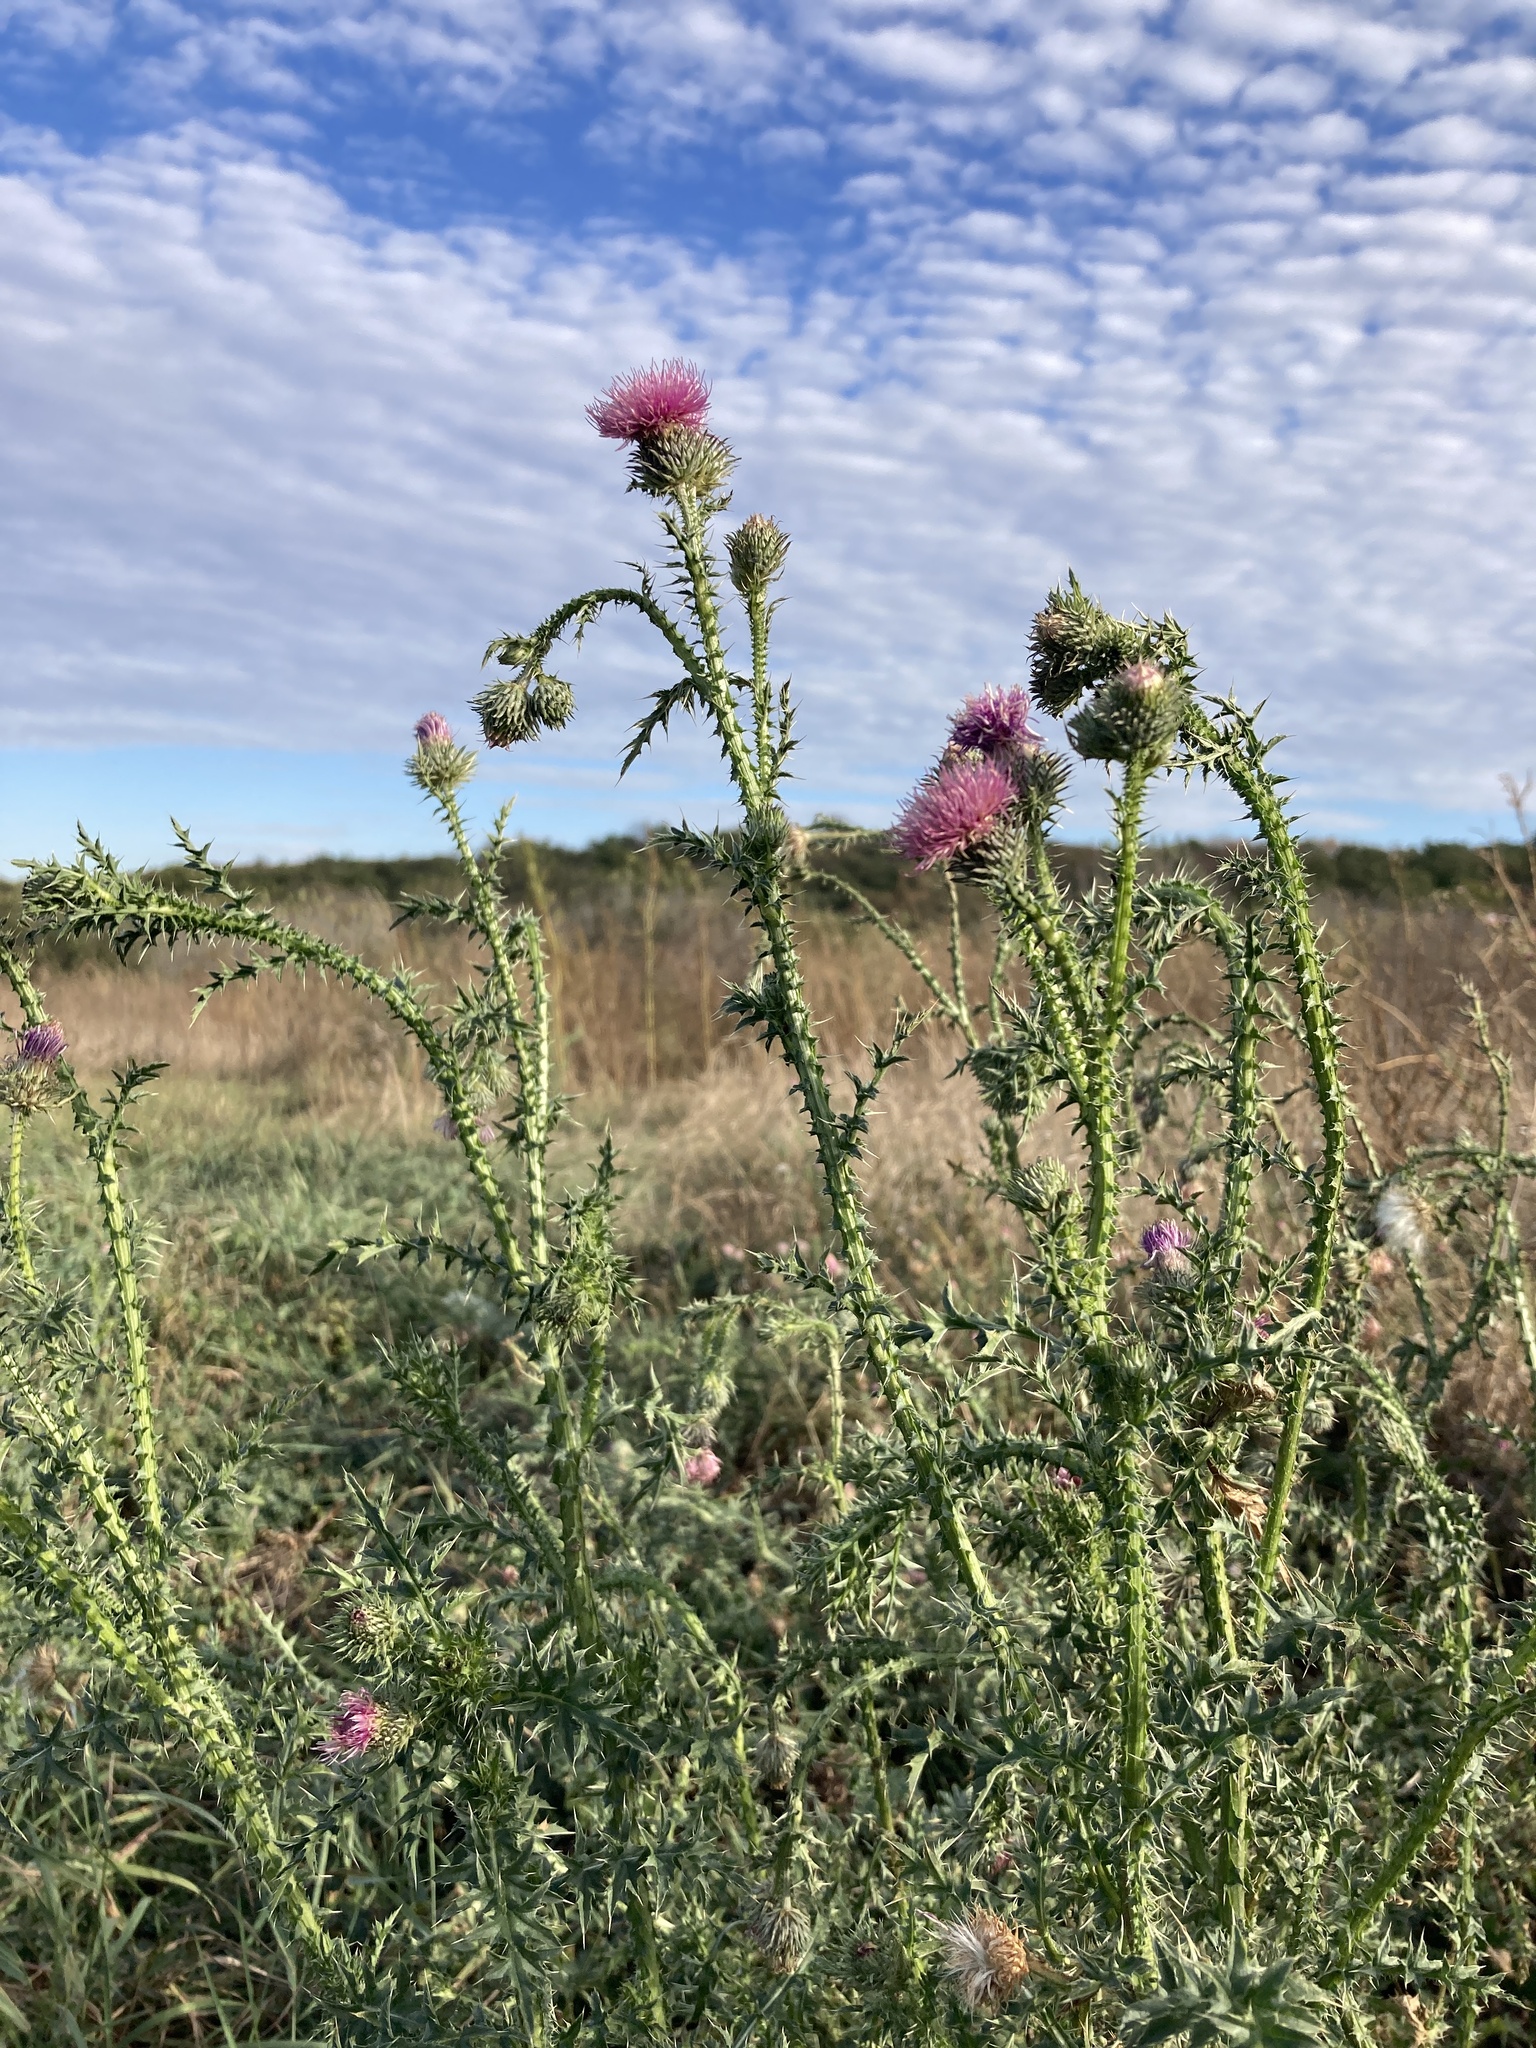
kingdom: Plantae
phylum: Tracheophyta
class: Magnoliopsida
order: Asterales
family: Asteraceae
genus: Carduus
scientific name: Carduus acanthoides
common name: Plumeless thistle
